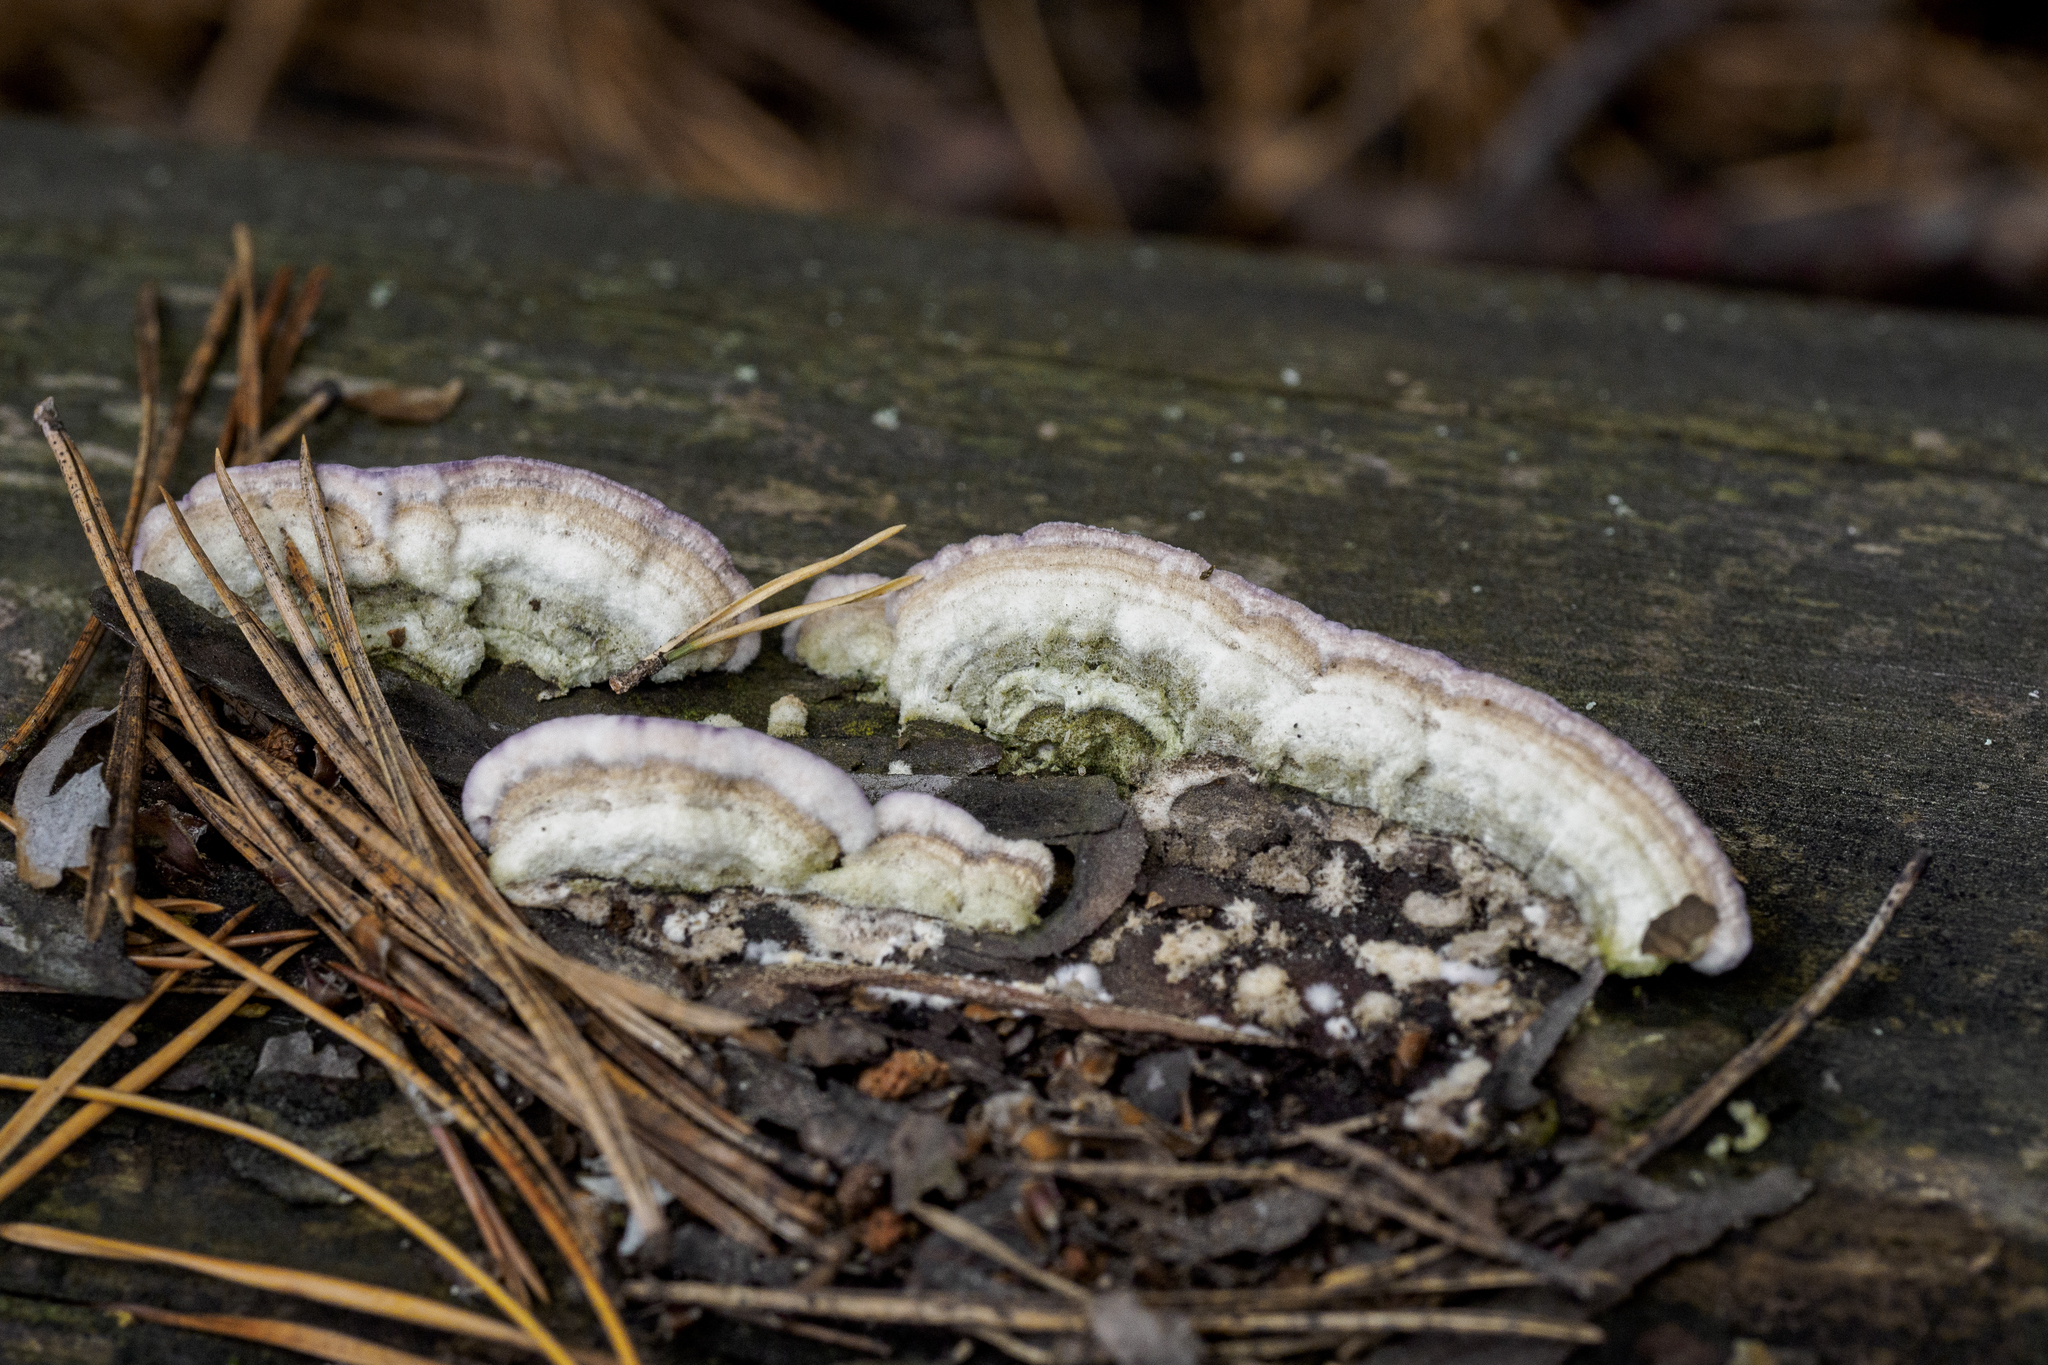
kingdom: Fungi
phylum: Basidiomycota
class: Agaricomycetes
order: Hymenochaetales
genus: Trichaptum
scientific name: Trichaptum abietinum
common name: Purplepore bracket
